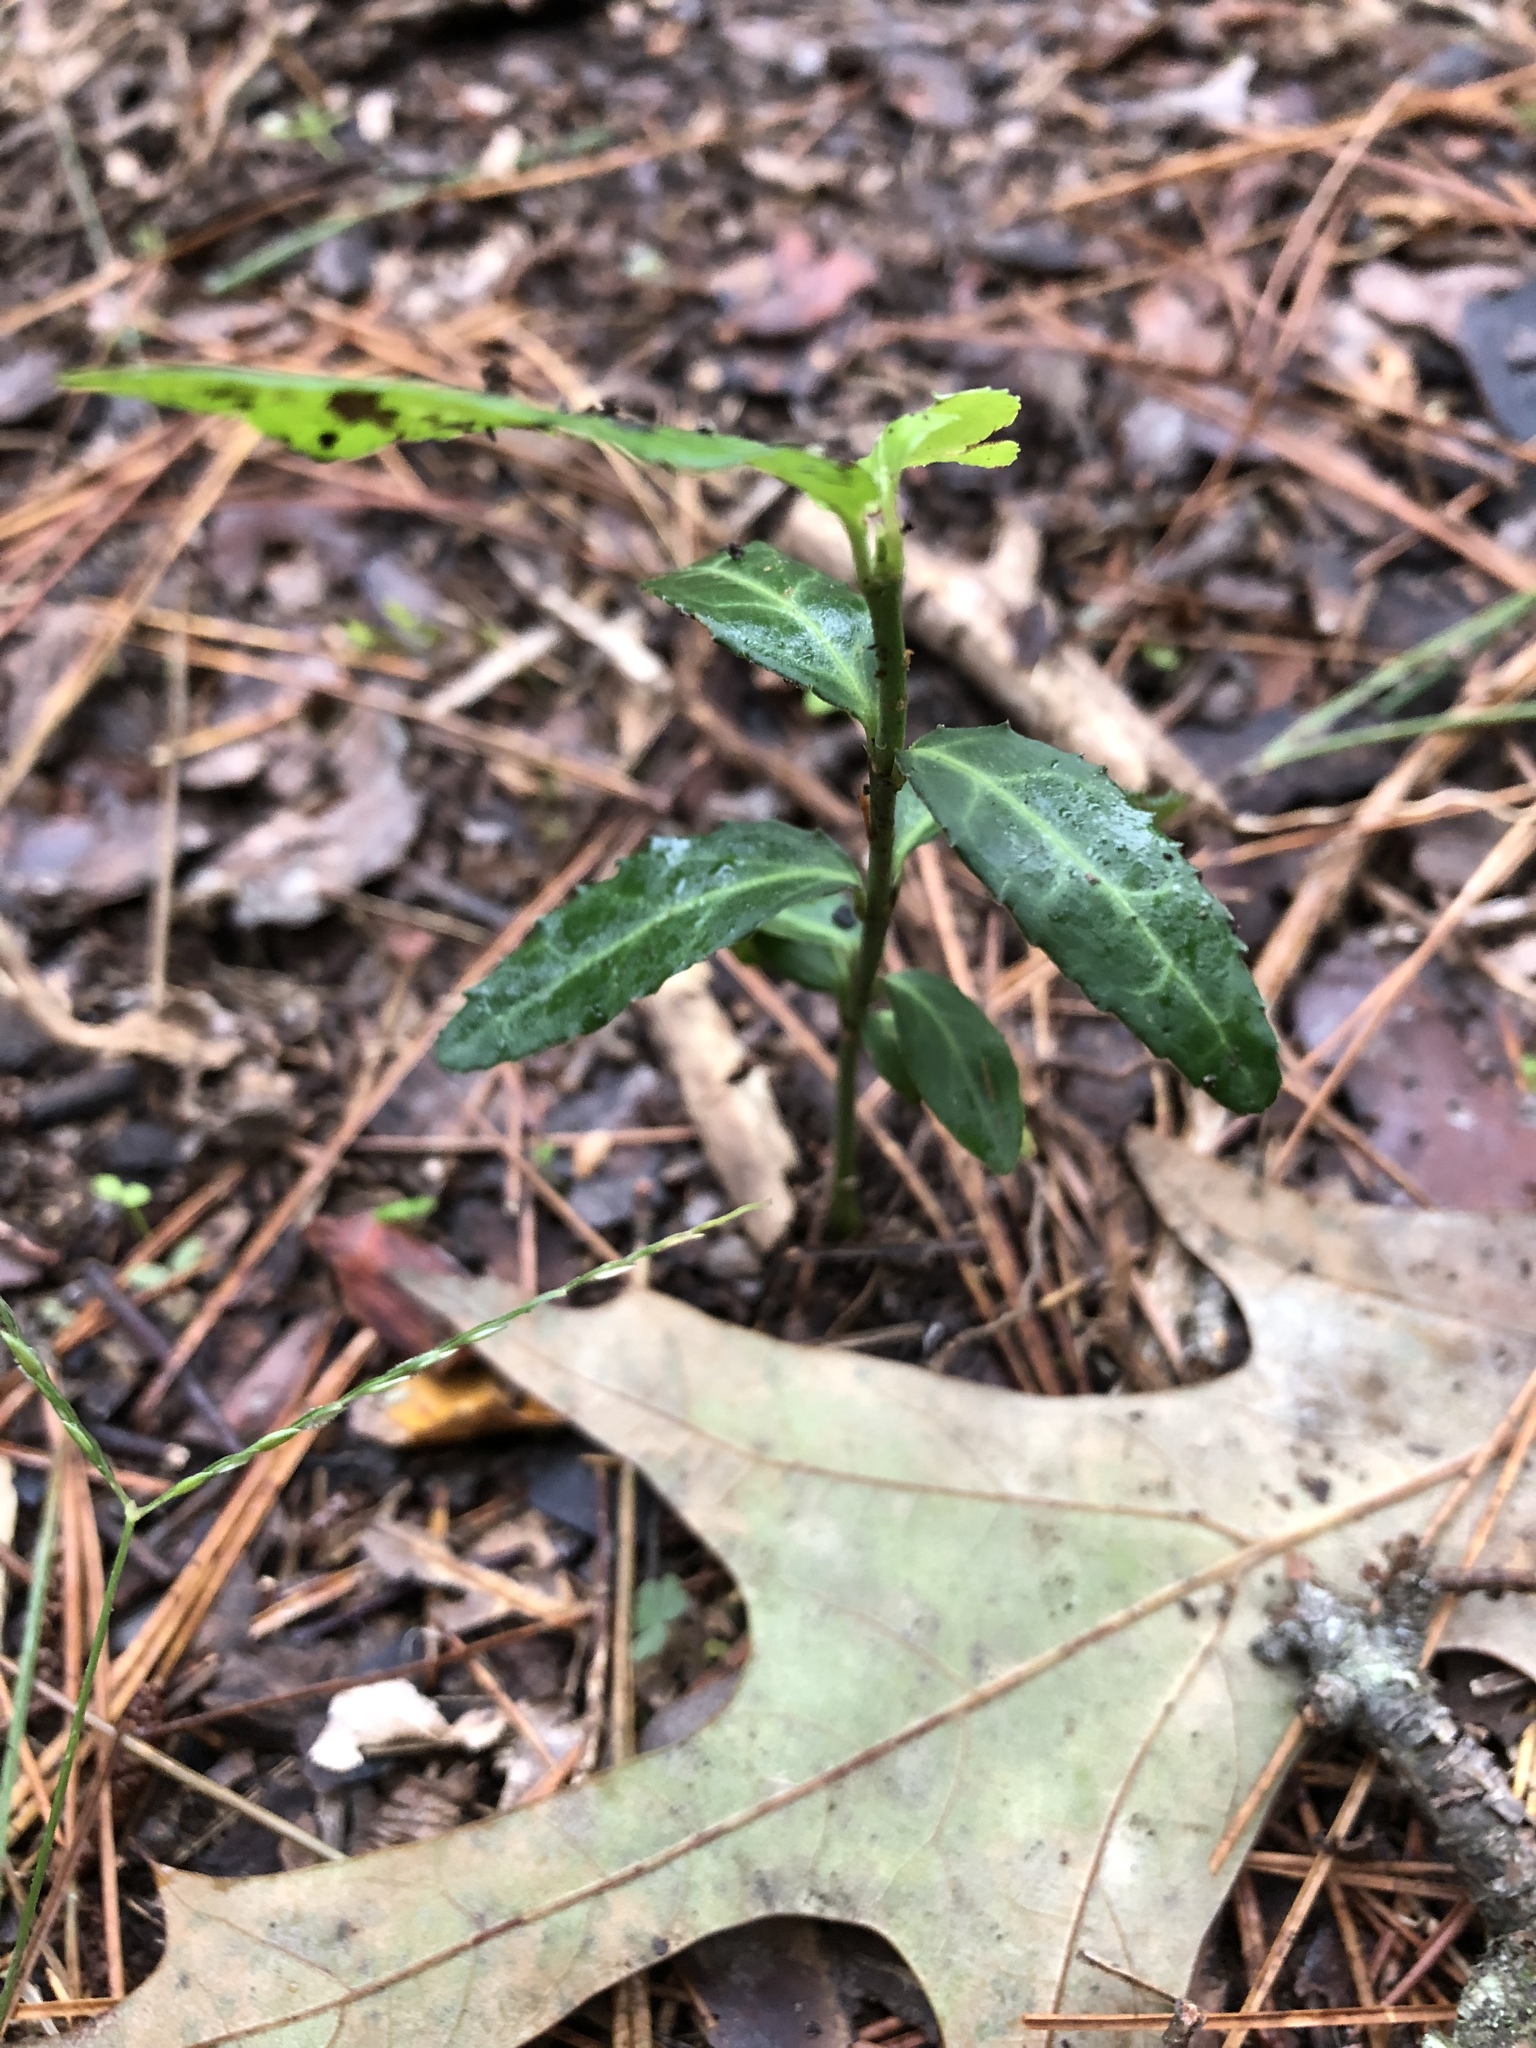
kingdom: Plantae
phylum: Tracheophyta
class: Magnoliopsida
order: Ericales
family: Ericaceae
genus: Chimaphila
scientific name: Chimaphila maculata
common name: Spotted pipsissewa
